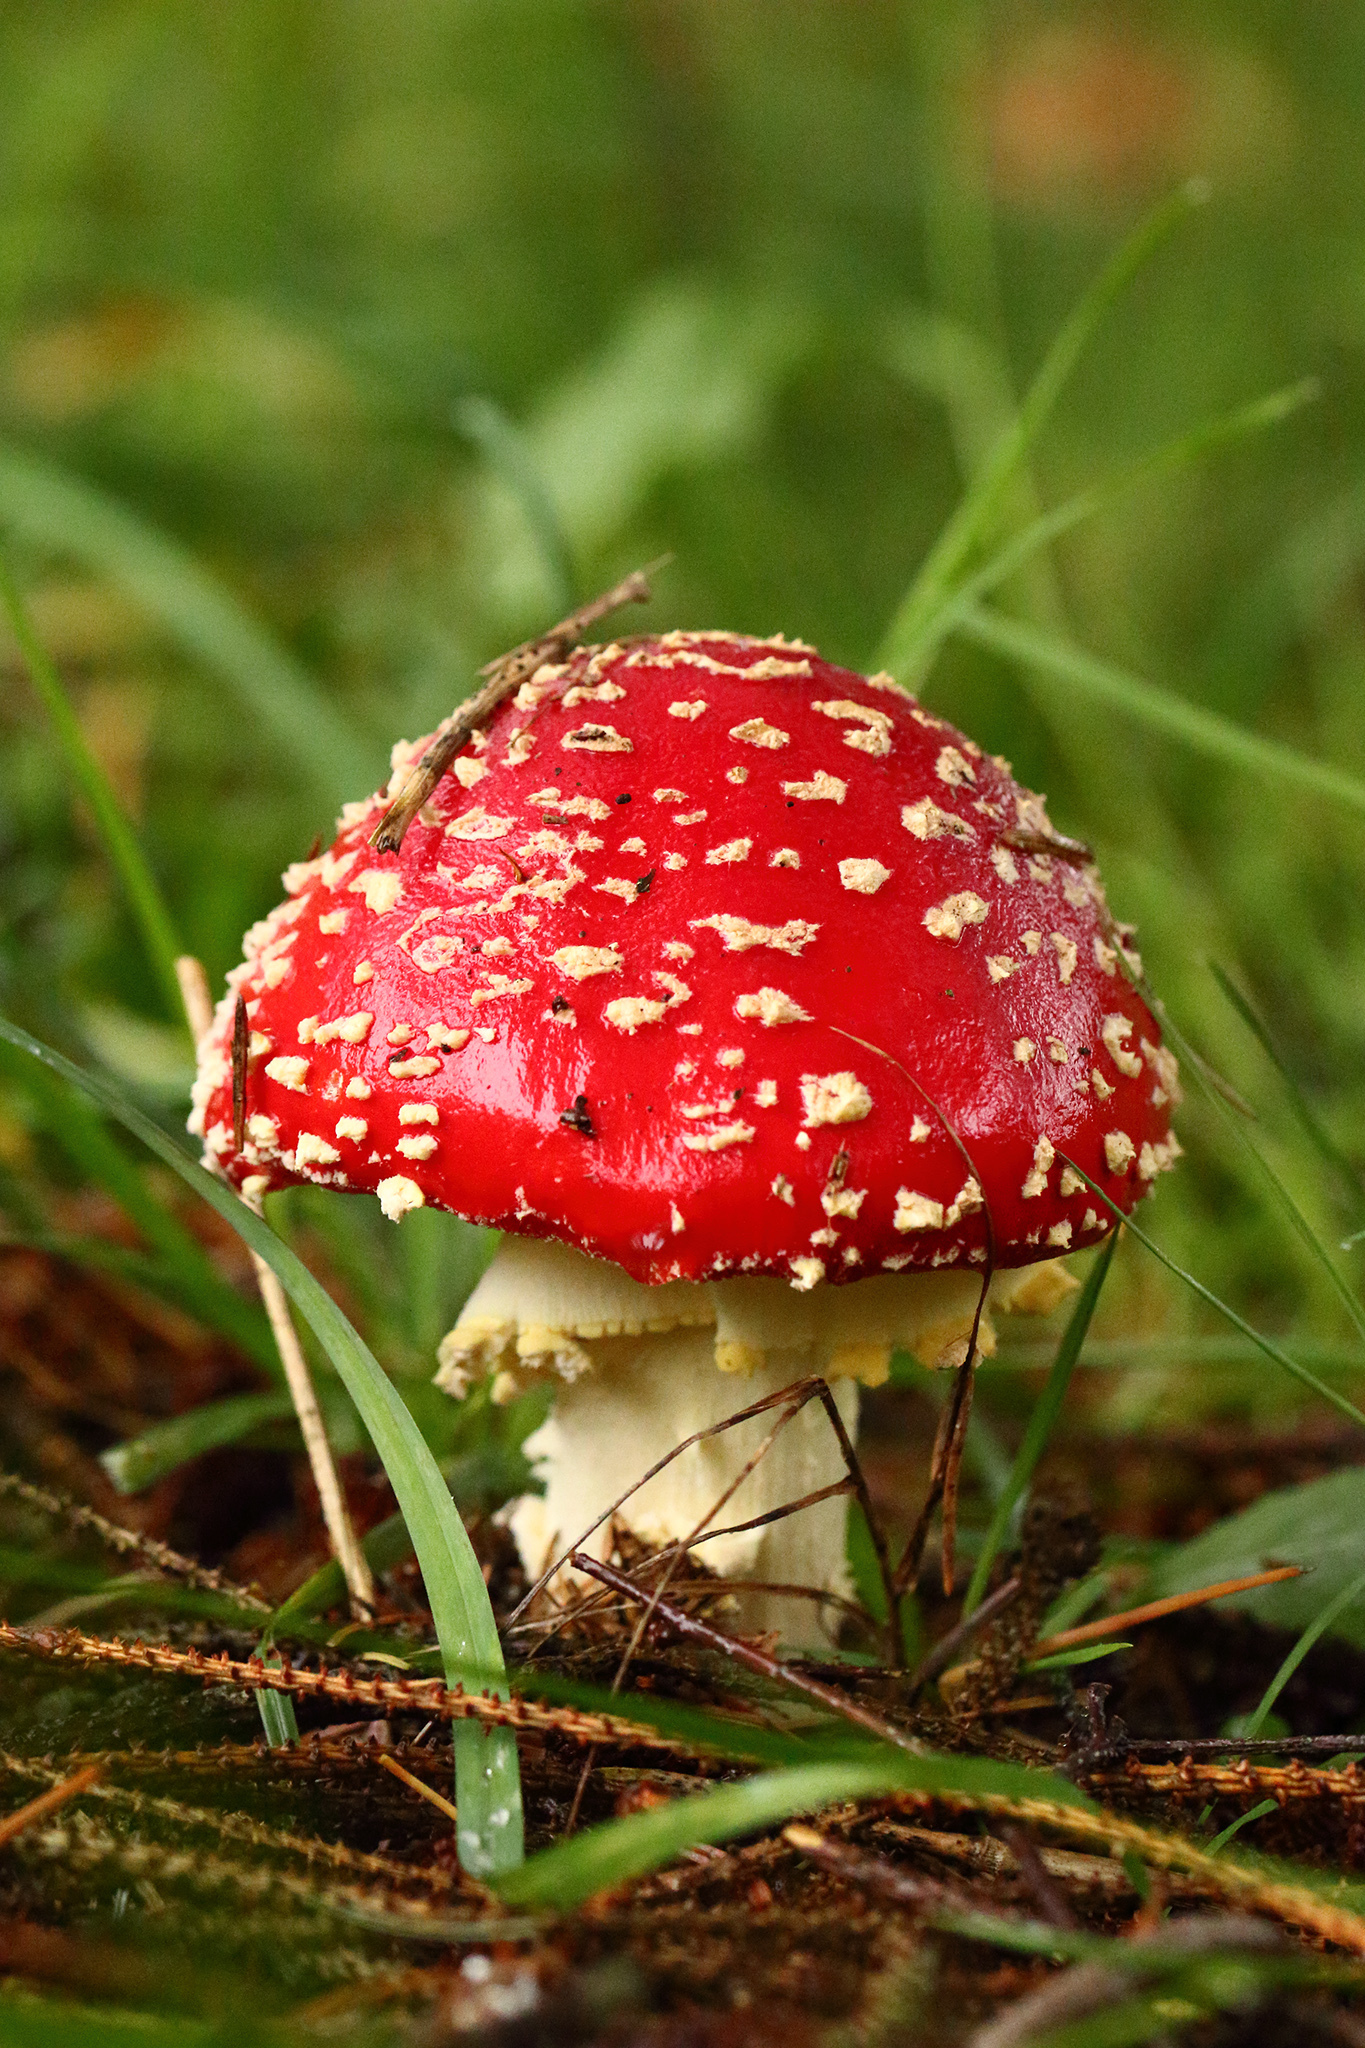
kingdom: Fungi
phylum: Basidiomycota
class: Agaricomycetes
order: Agaricales
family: Amanitaceae
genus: Amanita
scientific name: Amanita muscaria
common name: Fly agaric
